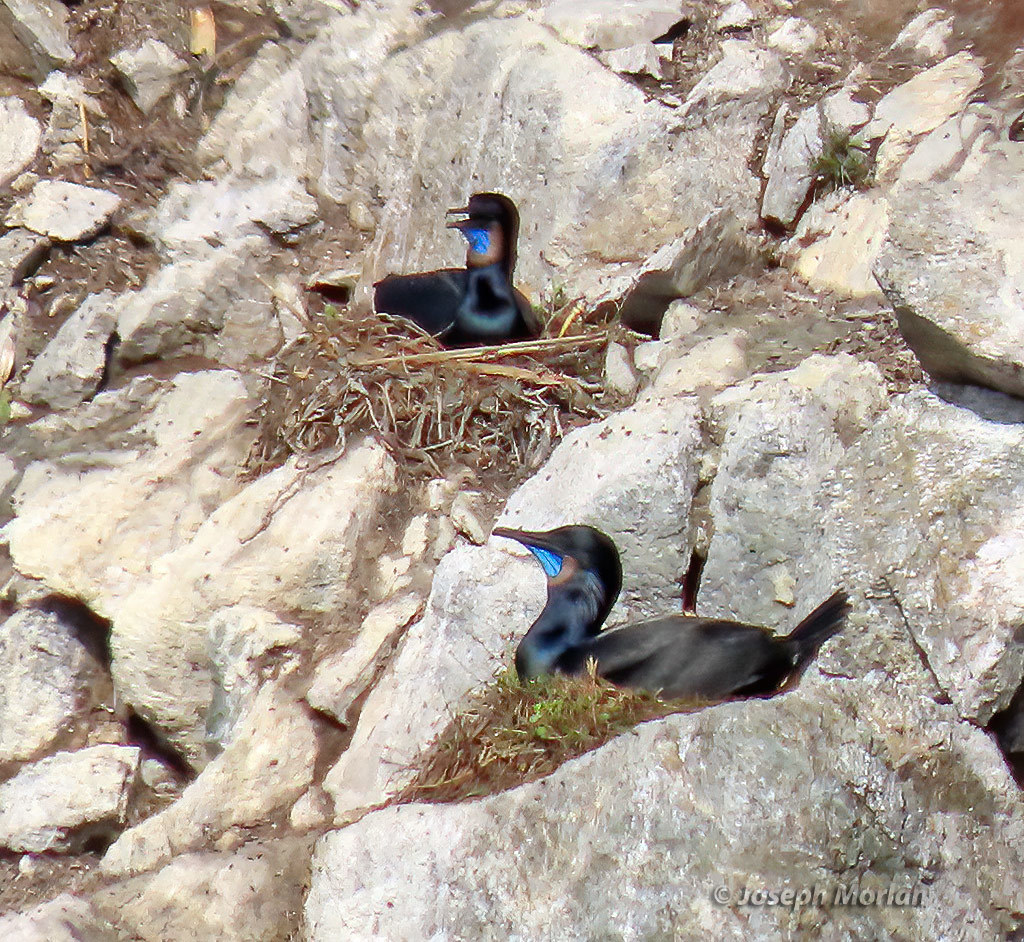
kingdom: Animalia
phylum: Chordata
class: Aves
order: Suliformes
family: Phalacrocoracidae
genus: Urile
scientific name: Urile penicillatus
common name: Brandt's cormorant
